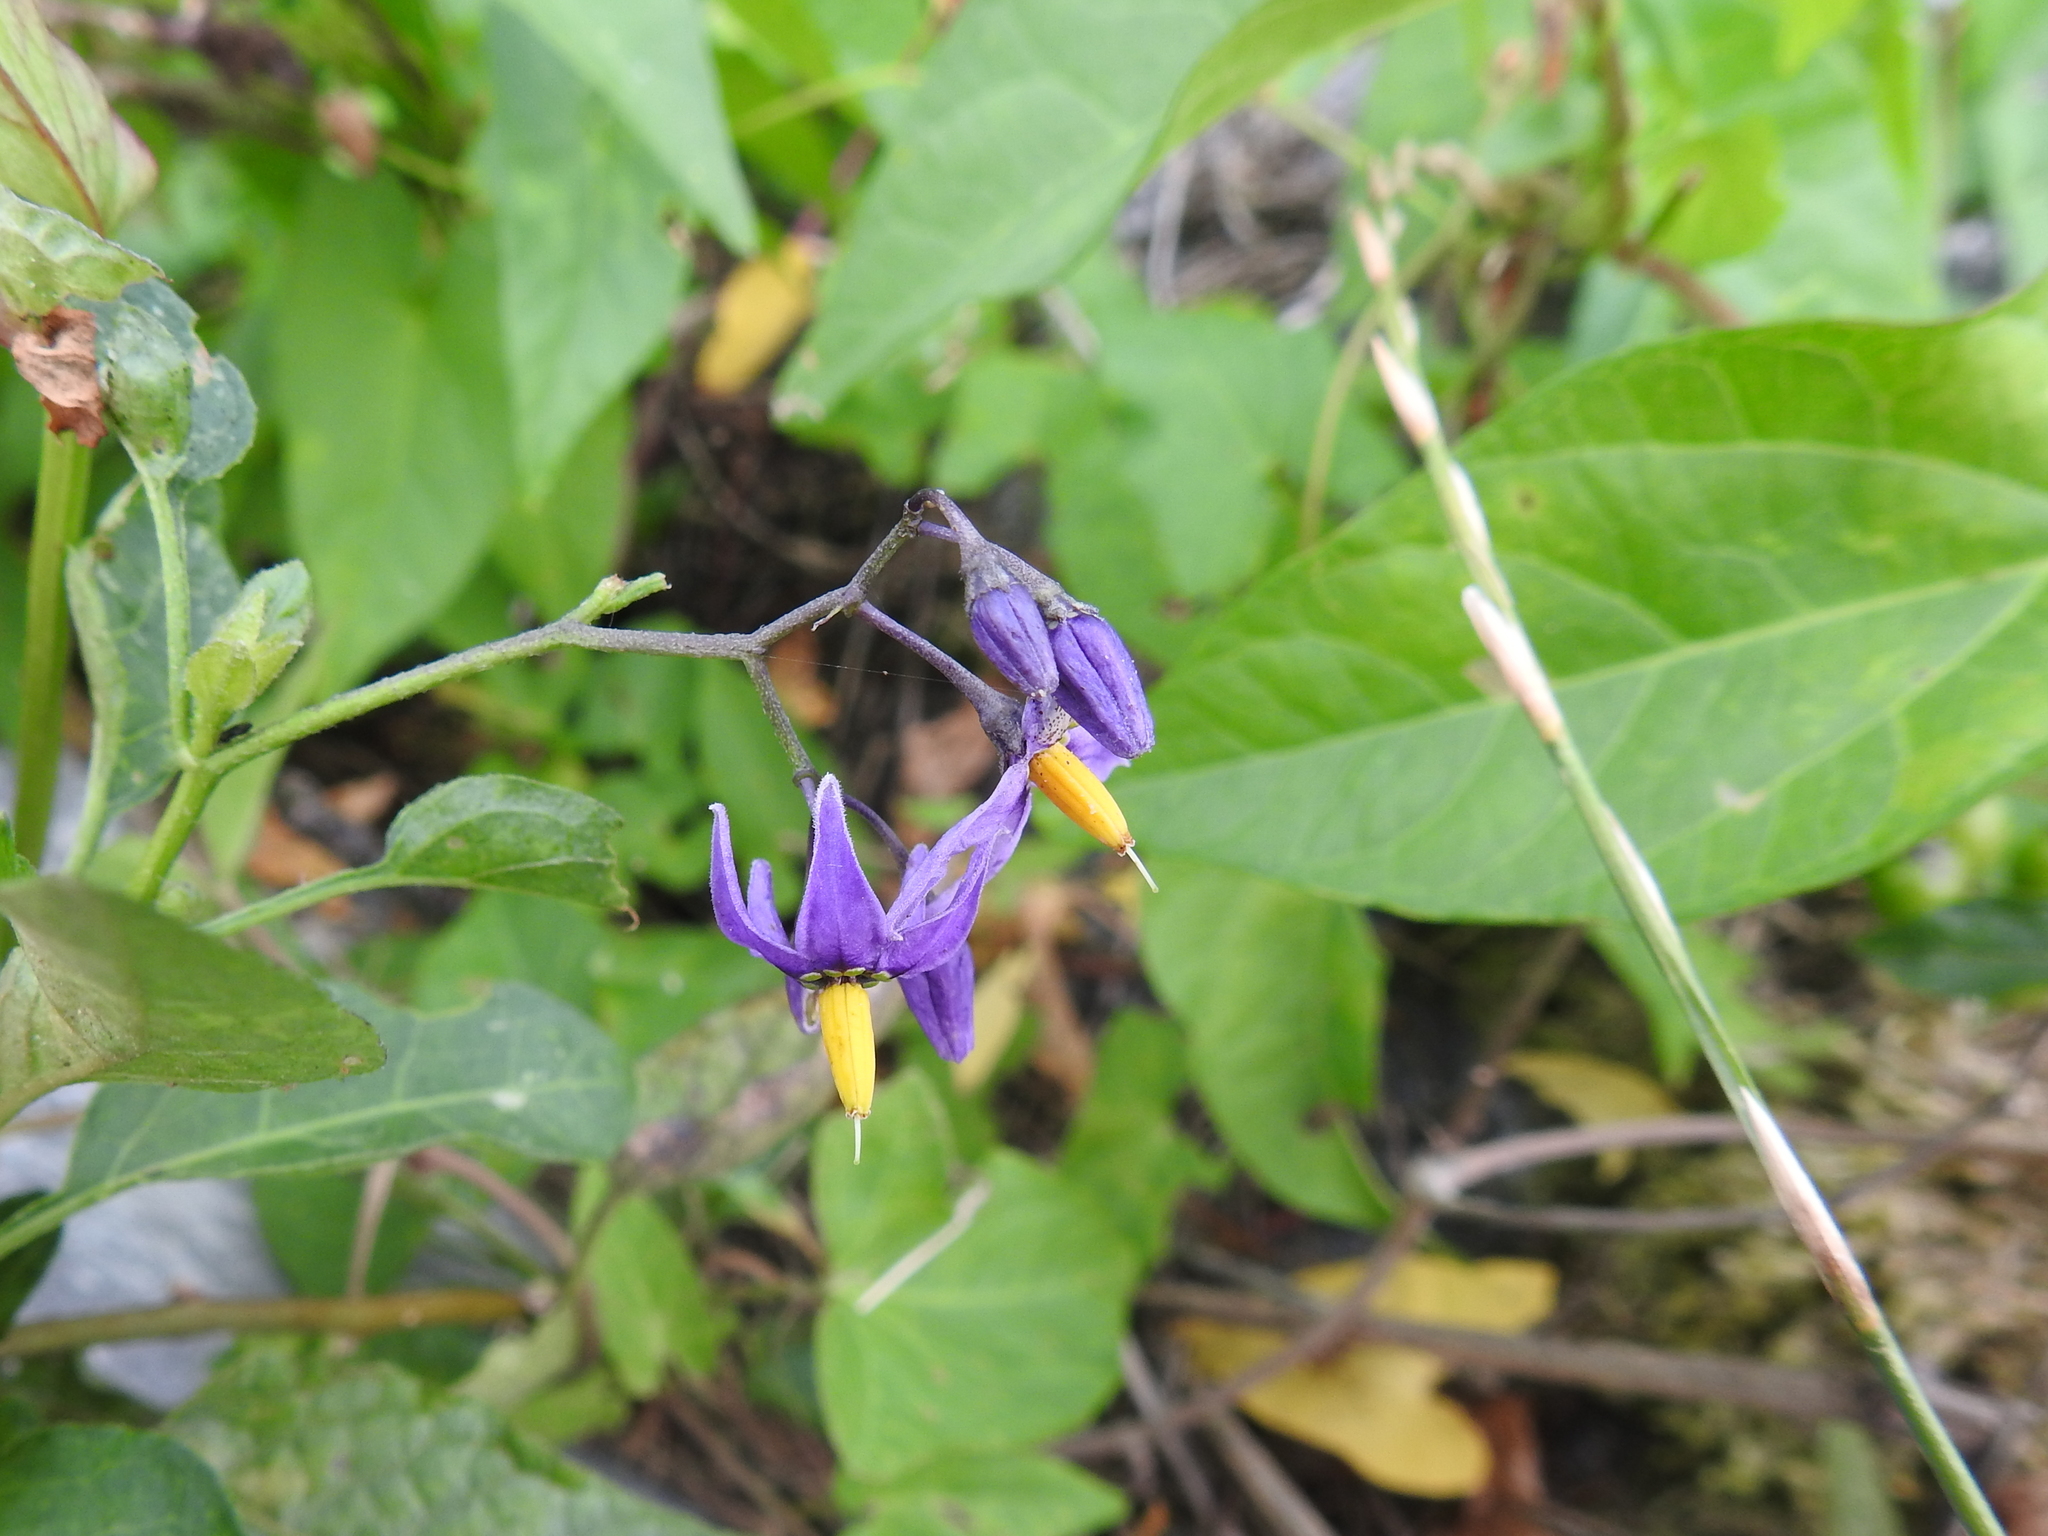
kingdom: Plantae
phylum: Tracheophyta
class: Magnoliopsida
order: Solanales
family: Solanaceae
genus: Solanum
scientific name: Solanum dulcamara
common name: Climbing nightshade
